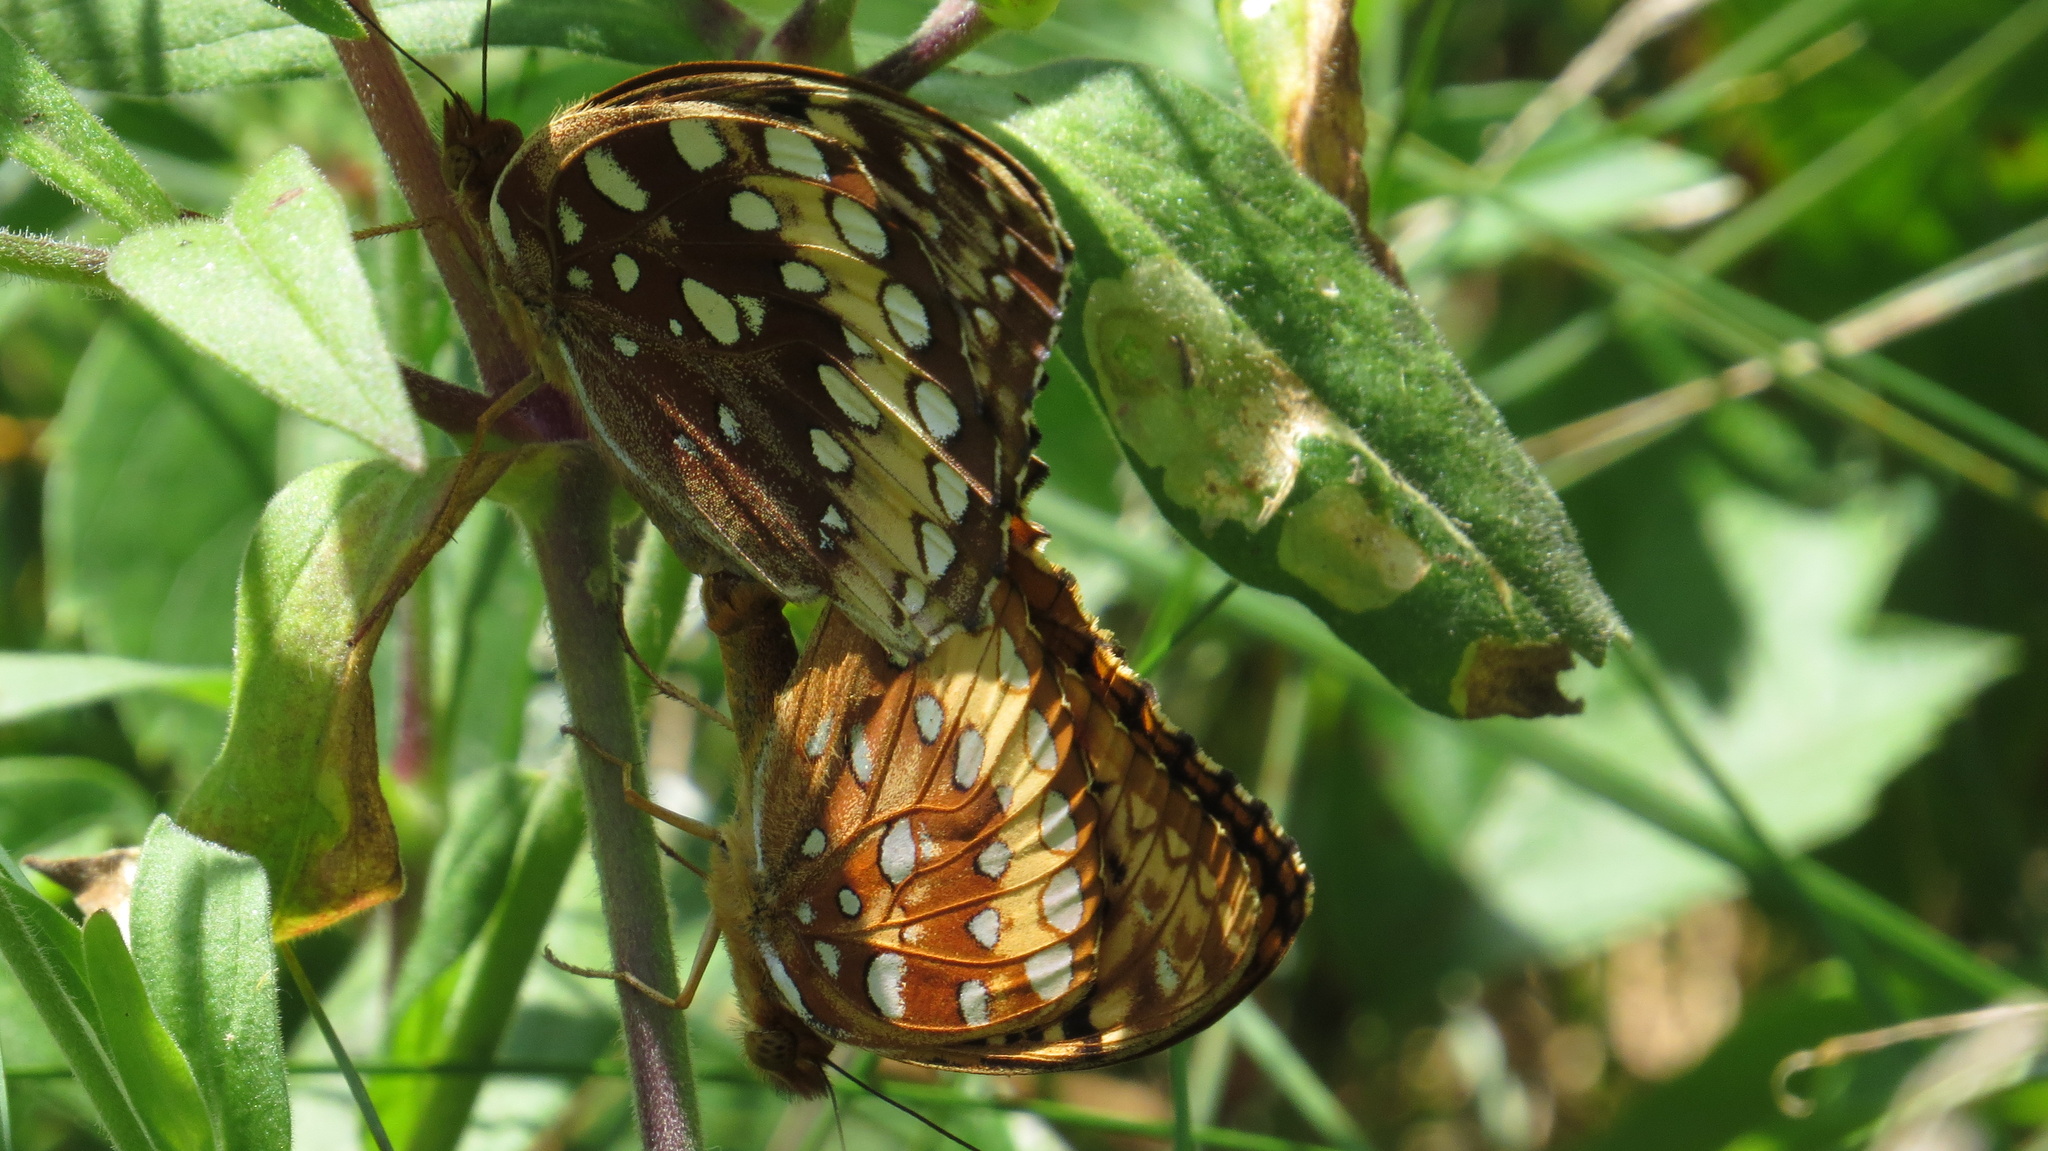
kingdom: Animalia
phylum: Arthropoda
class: Insecta
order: Lepidoptera
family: Nymphalidae
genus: Speyeria
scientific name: Speyeria cybele
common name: Great spangled fritillary
